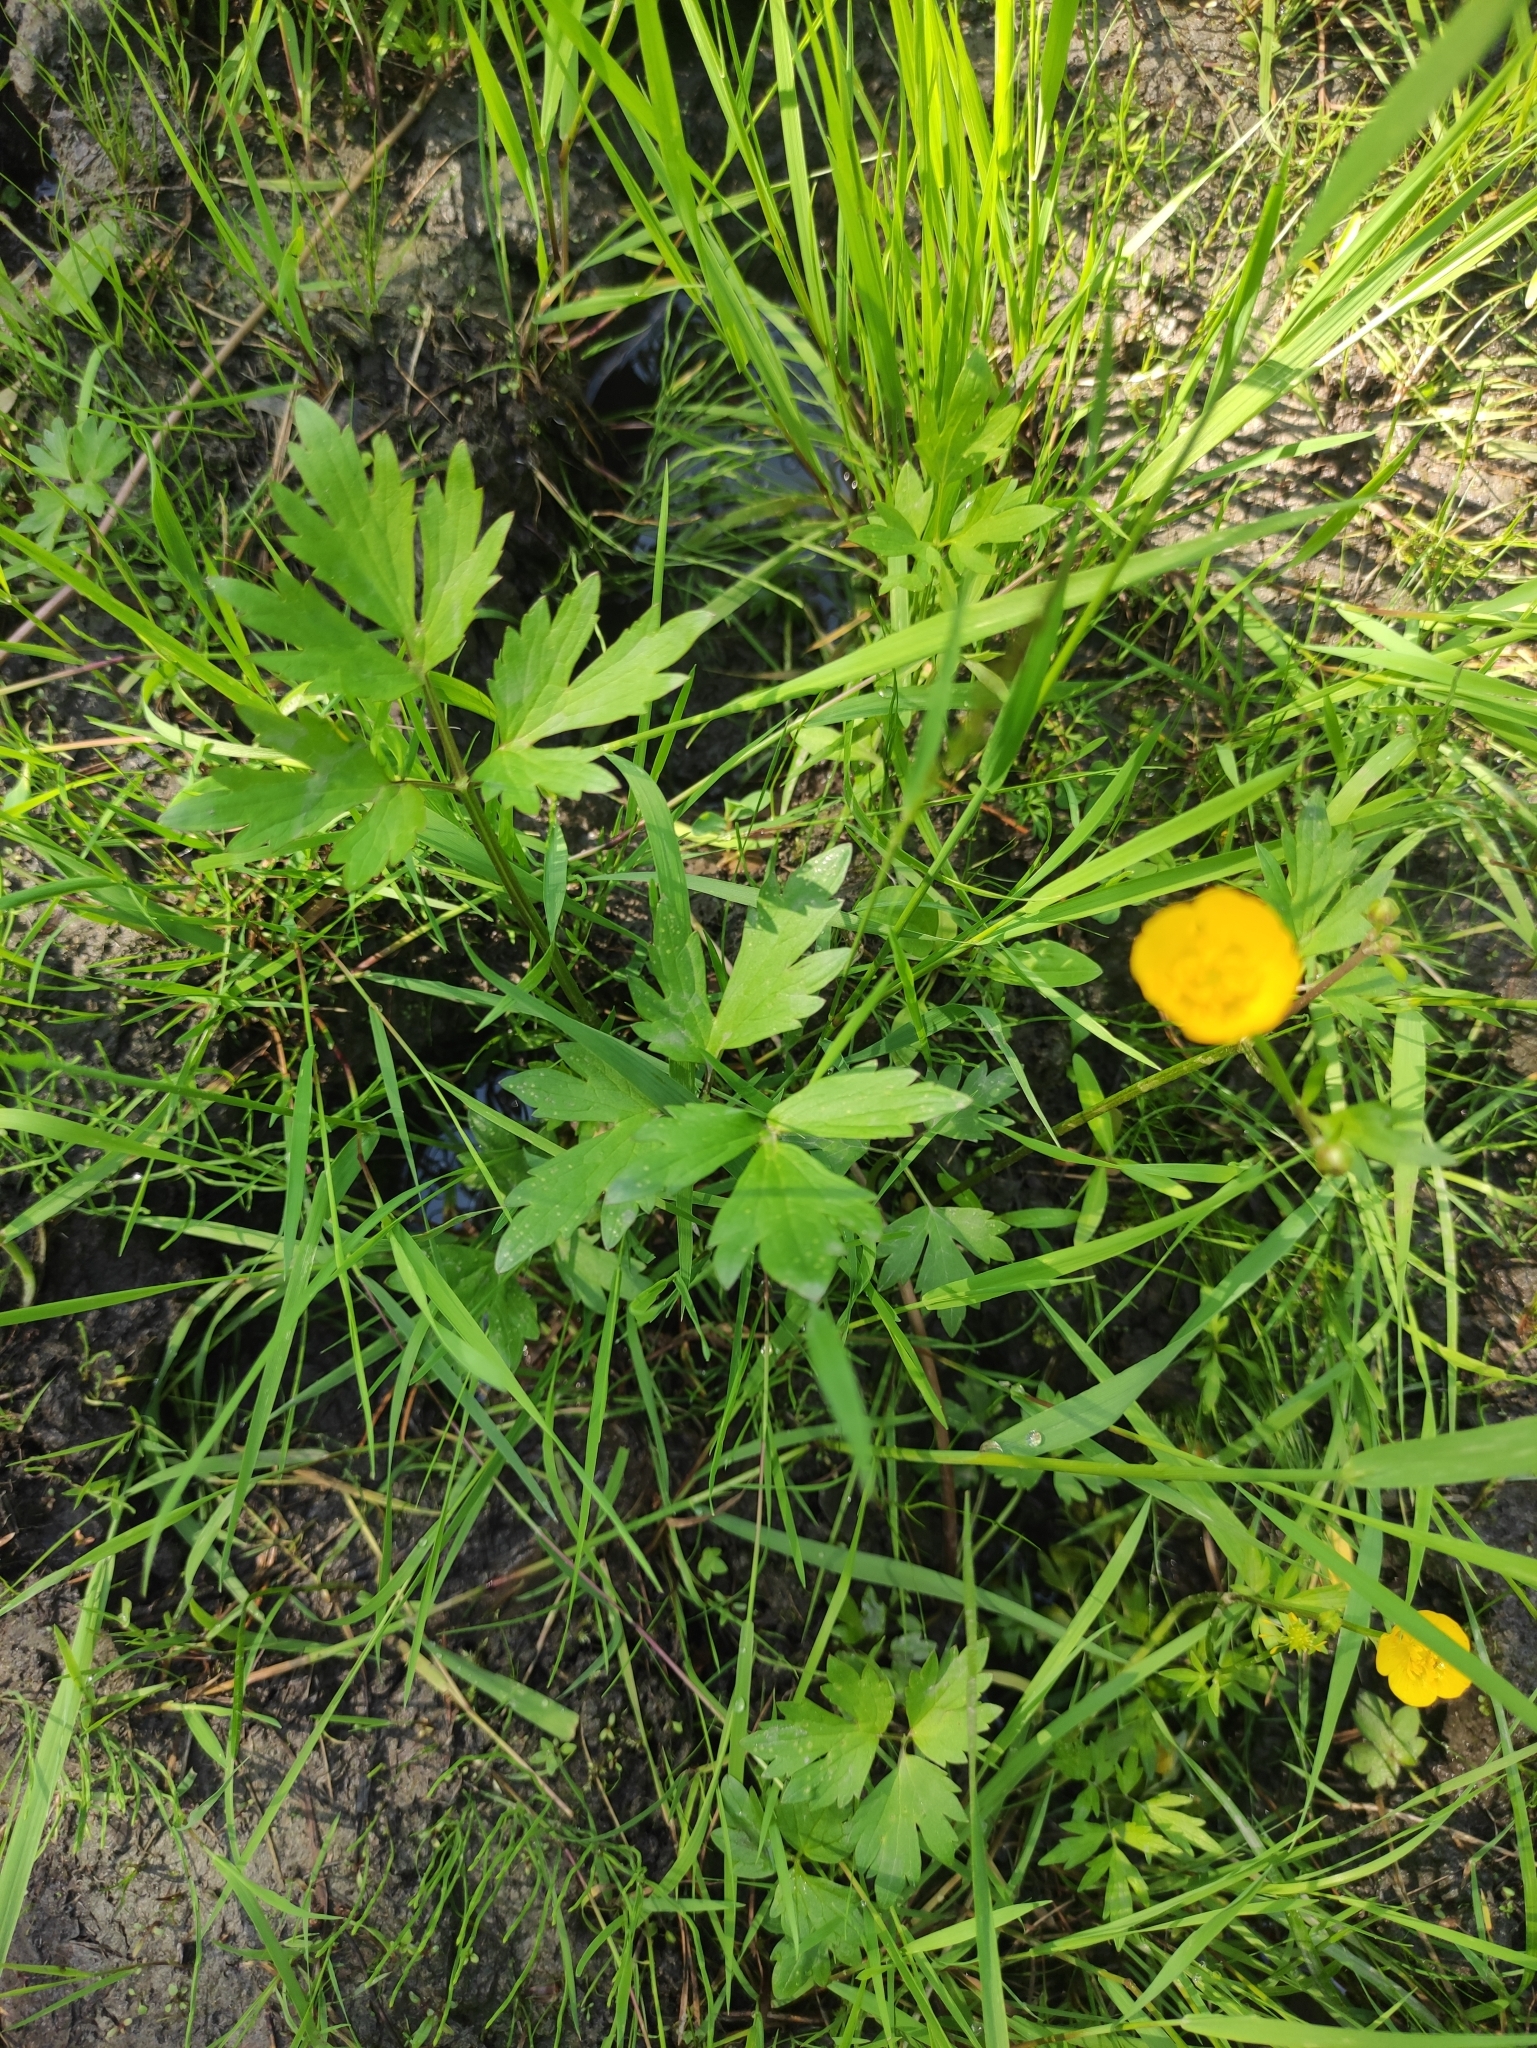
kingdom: Plantae
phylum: Tracheophyta
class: Magnoliopsida
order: Ranunculales
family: Ranunculaceae
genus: Ranunculus
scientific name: Ranunculus repens
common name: Creeping buttercup
